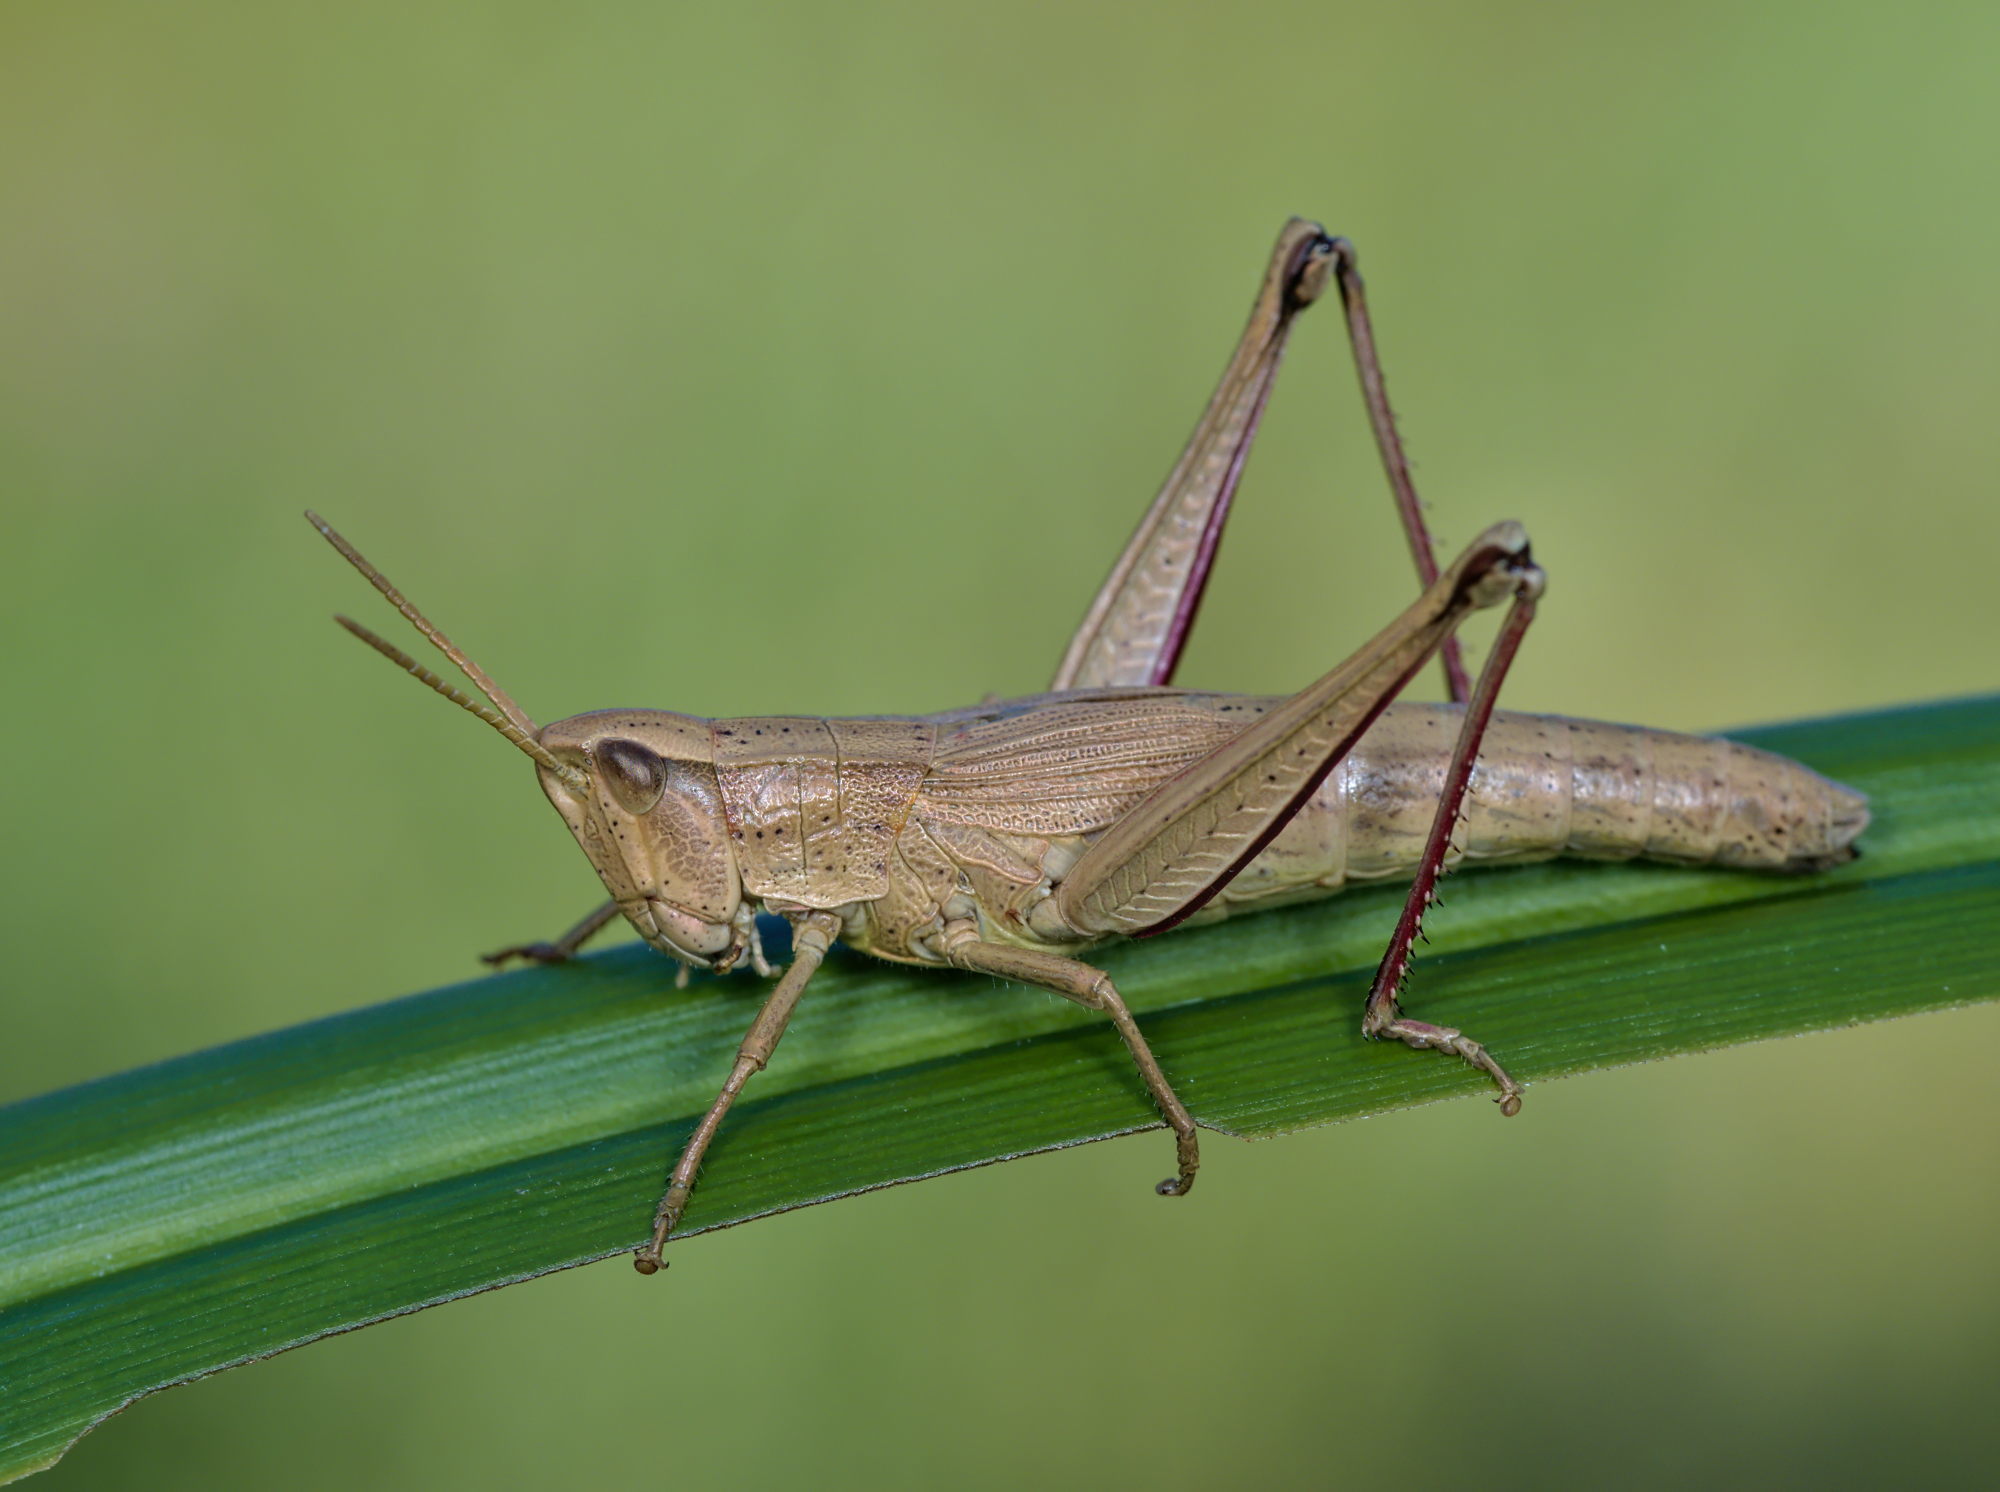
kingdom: Animalia
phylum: Arthropoda
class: Insecta
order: Orthoptera
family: Acrididae
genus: Chrysochraon
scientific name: Chrysochraon dispar
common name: Large gold grasshopper
